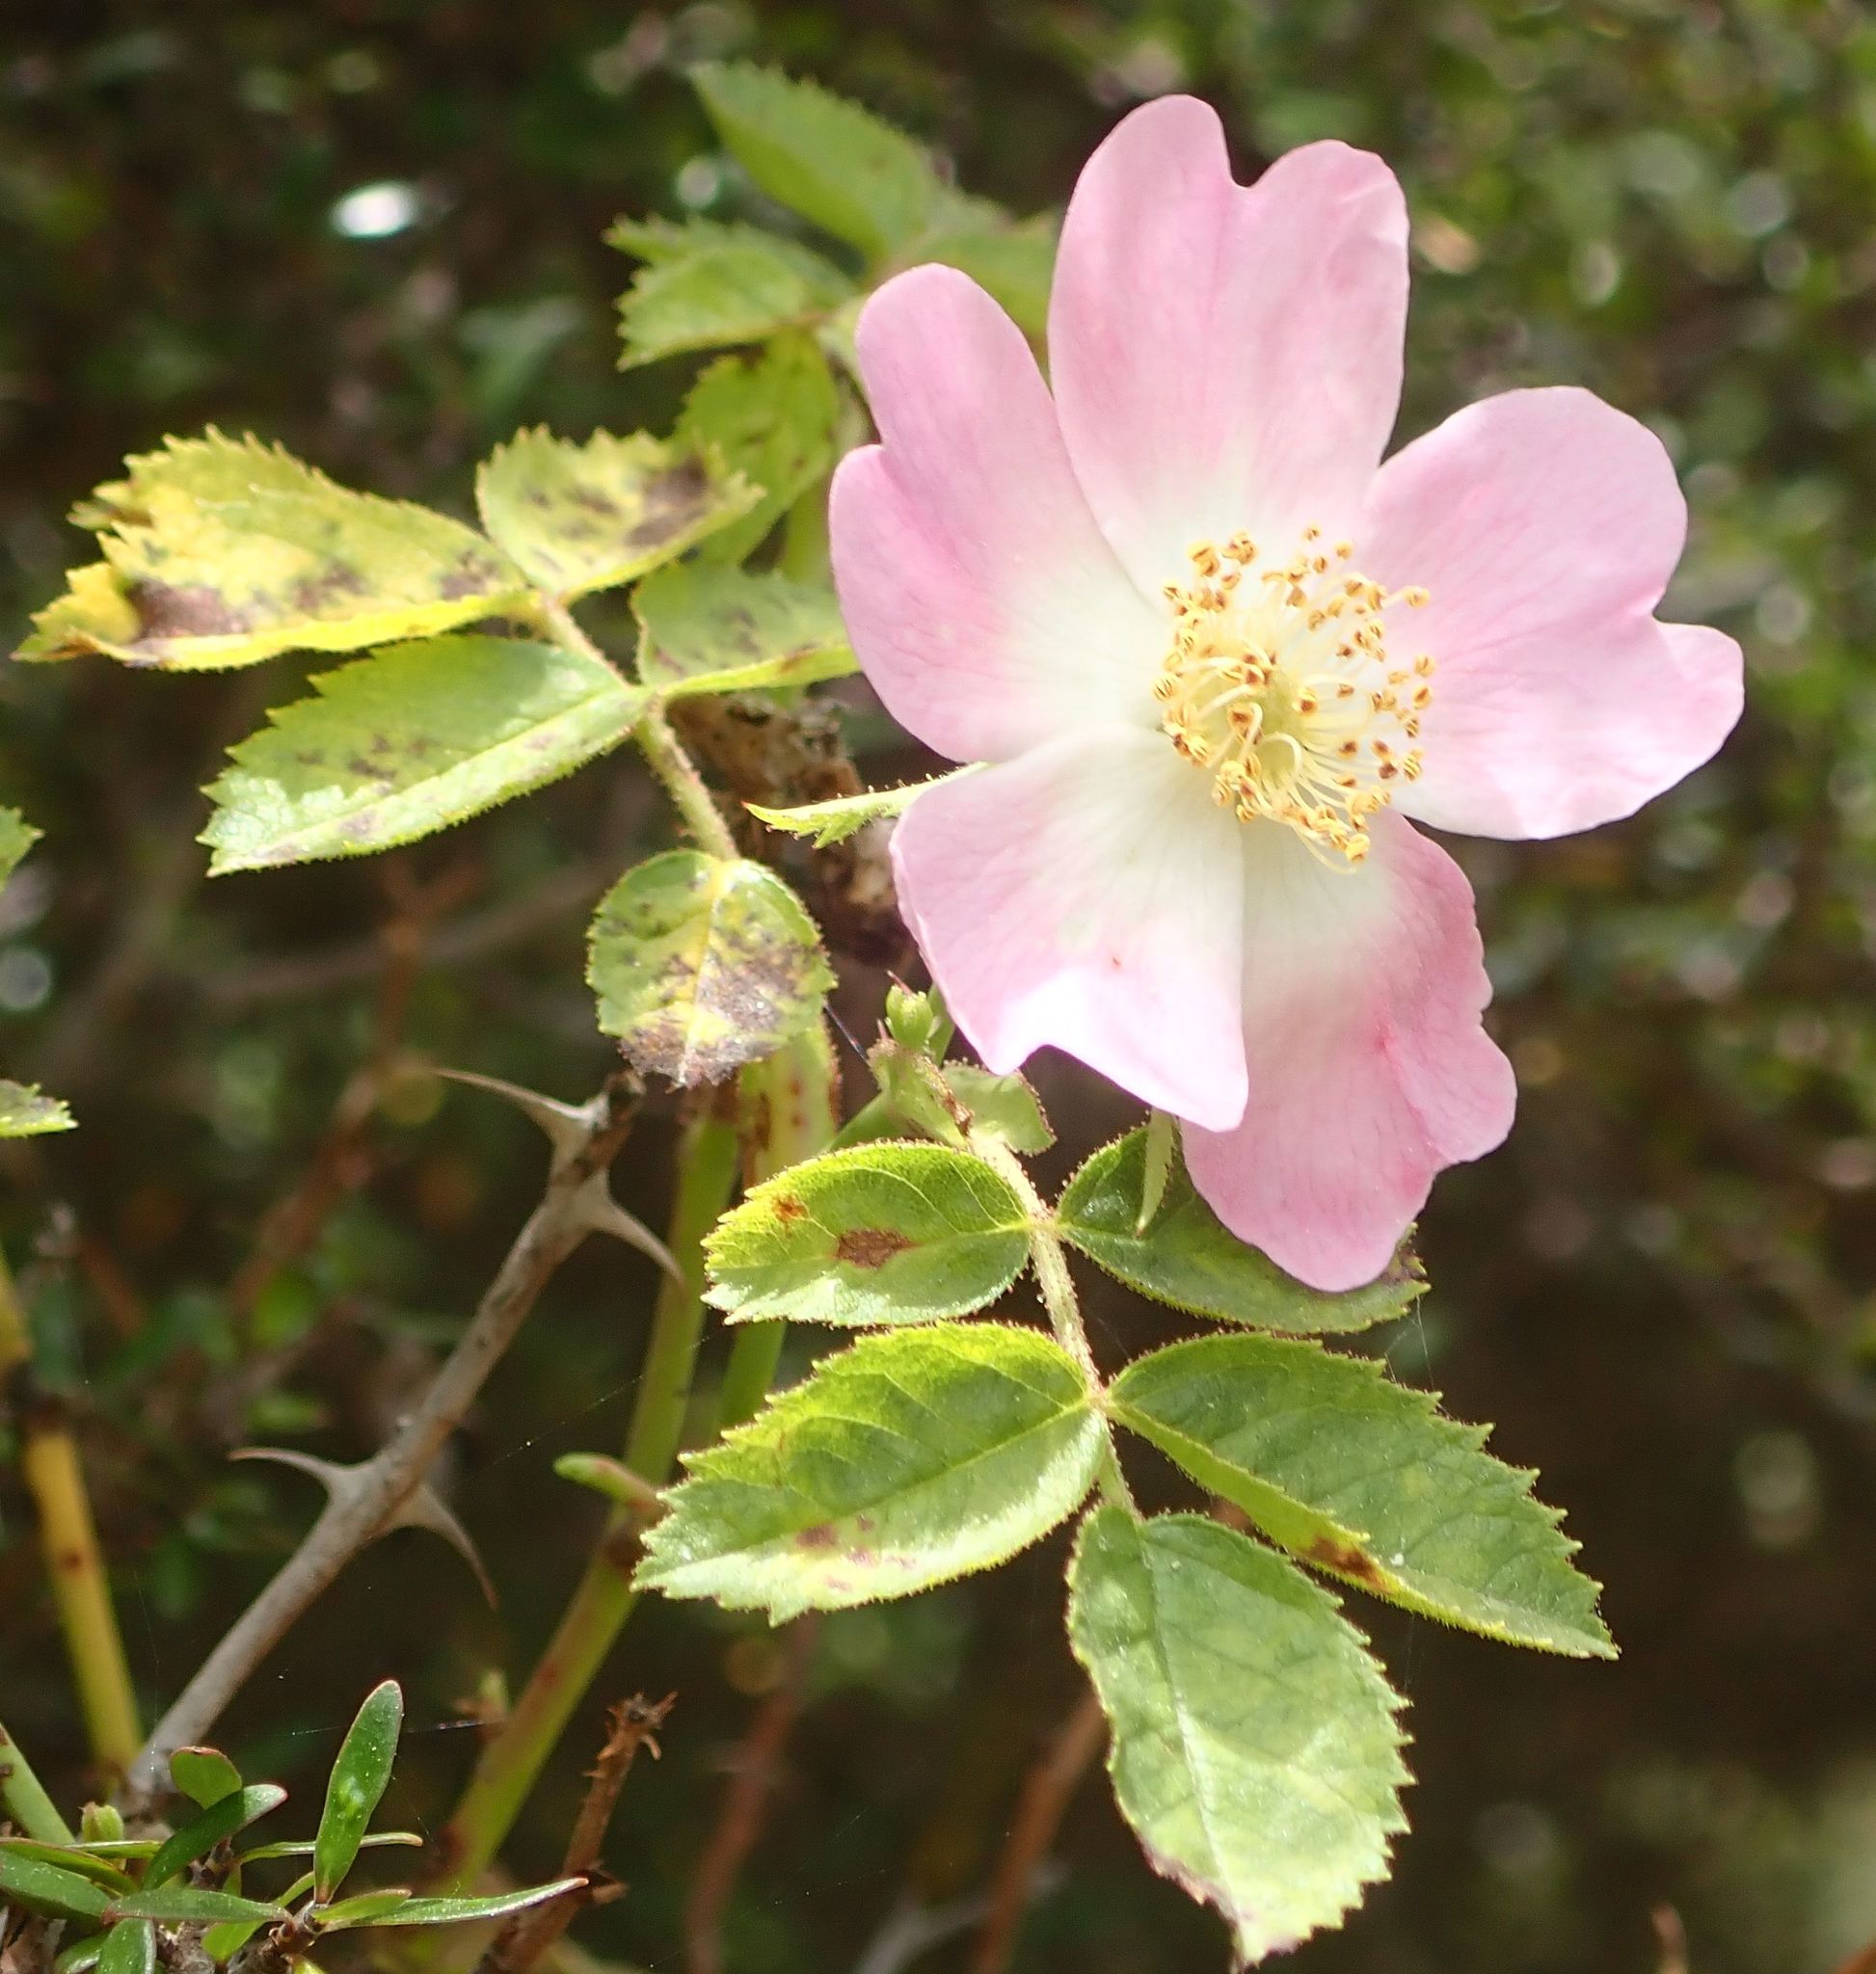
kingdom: Plantae
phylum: Tracheophyta
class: Magnoliopsida
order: Rosales
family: Rosaceae
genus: Rosa
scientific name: Rosa rubiginosa
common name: Sweet-briar
